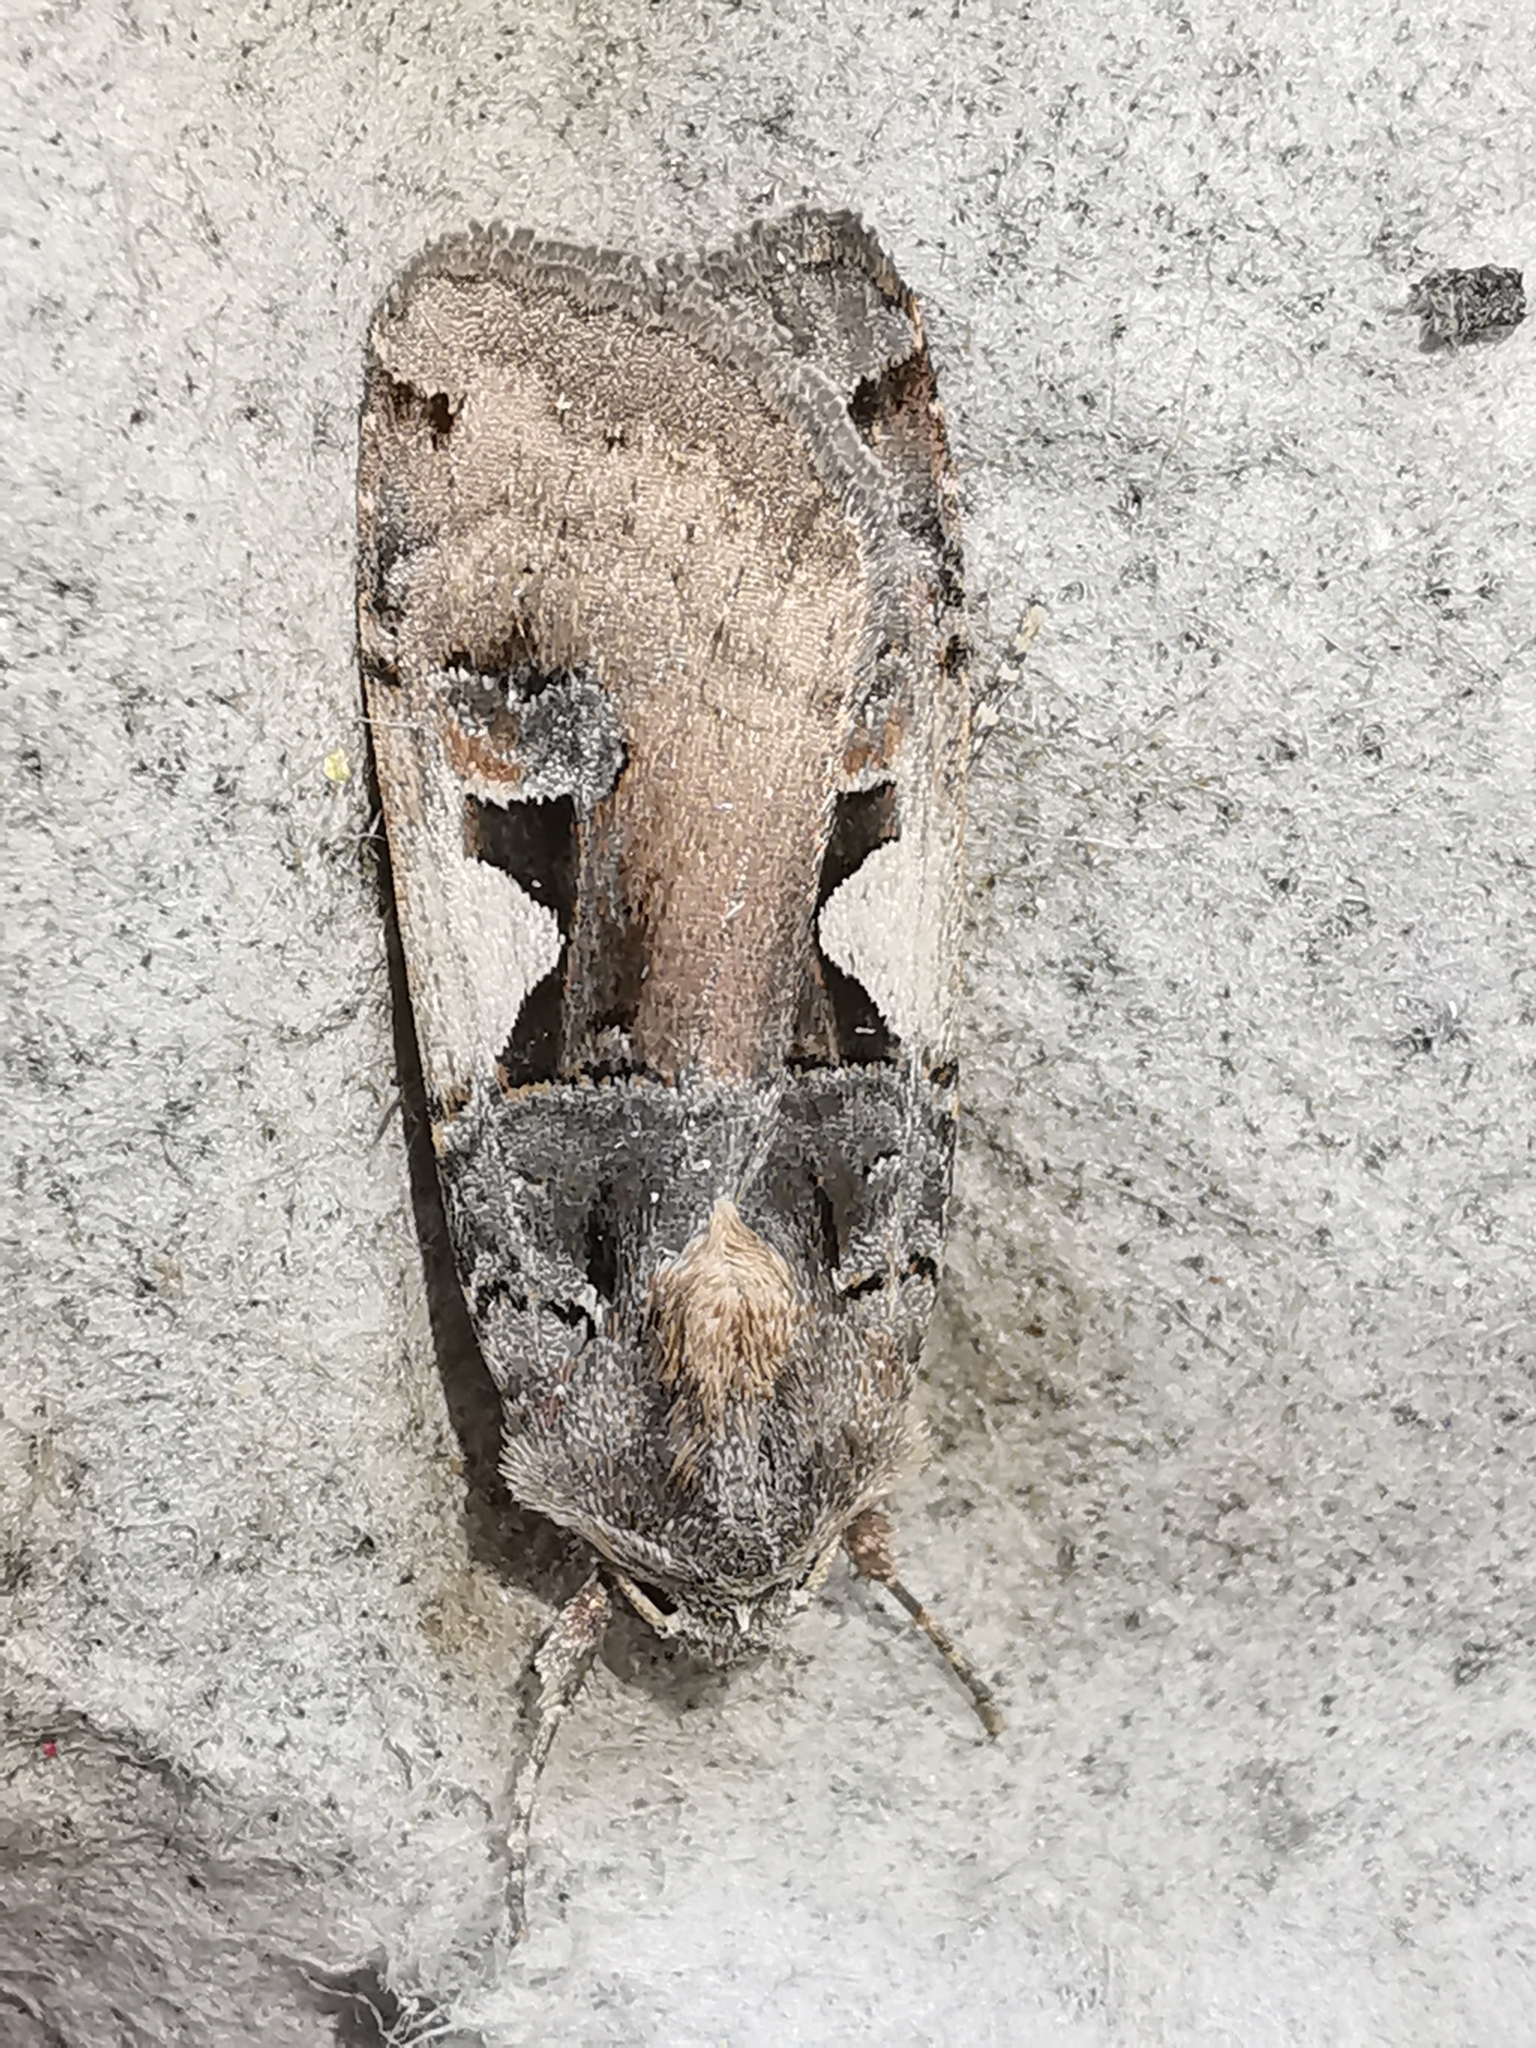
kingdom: Animalia
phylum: Arthropoda
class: Insecta
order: Lepidoptera
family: Noctuidae
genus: Xestia
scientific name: Xestia c-nigrum
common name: Setaceous hebrew character
